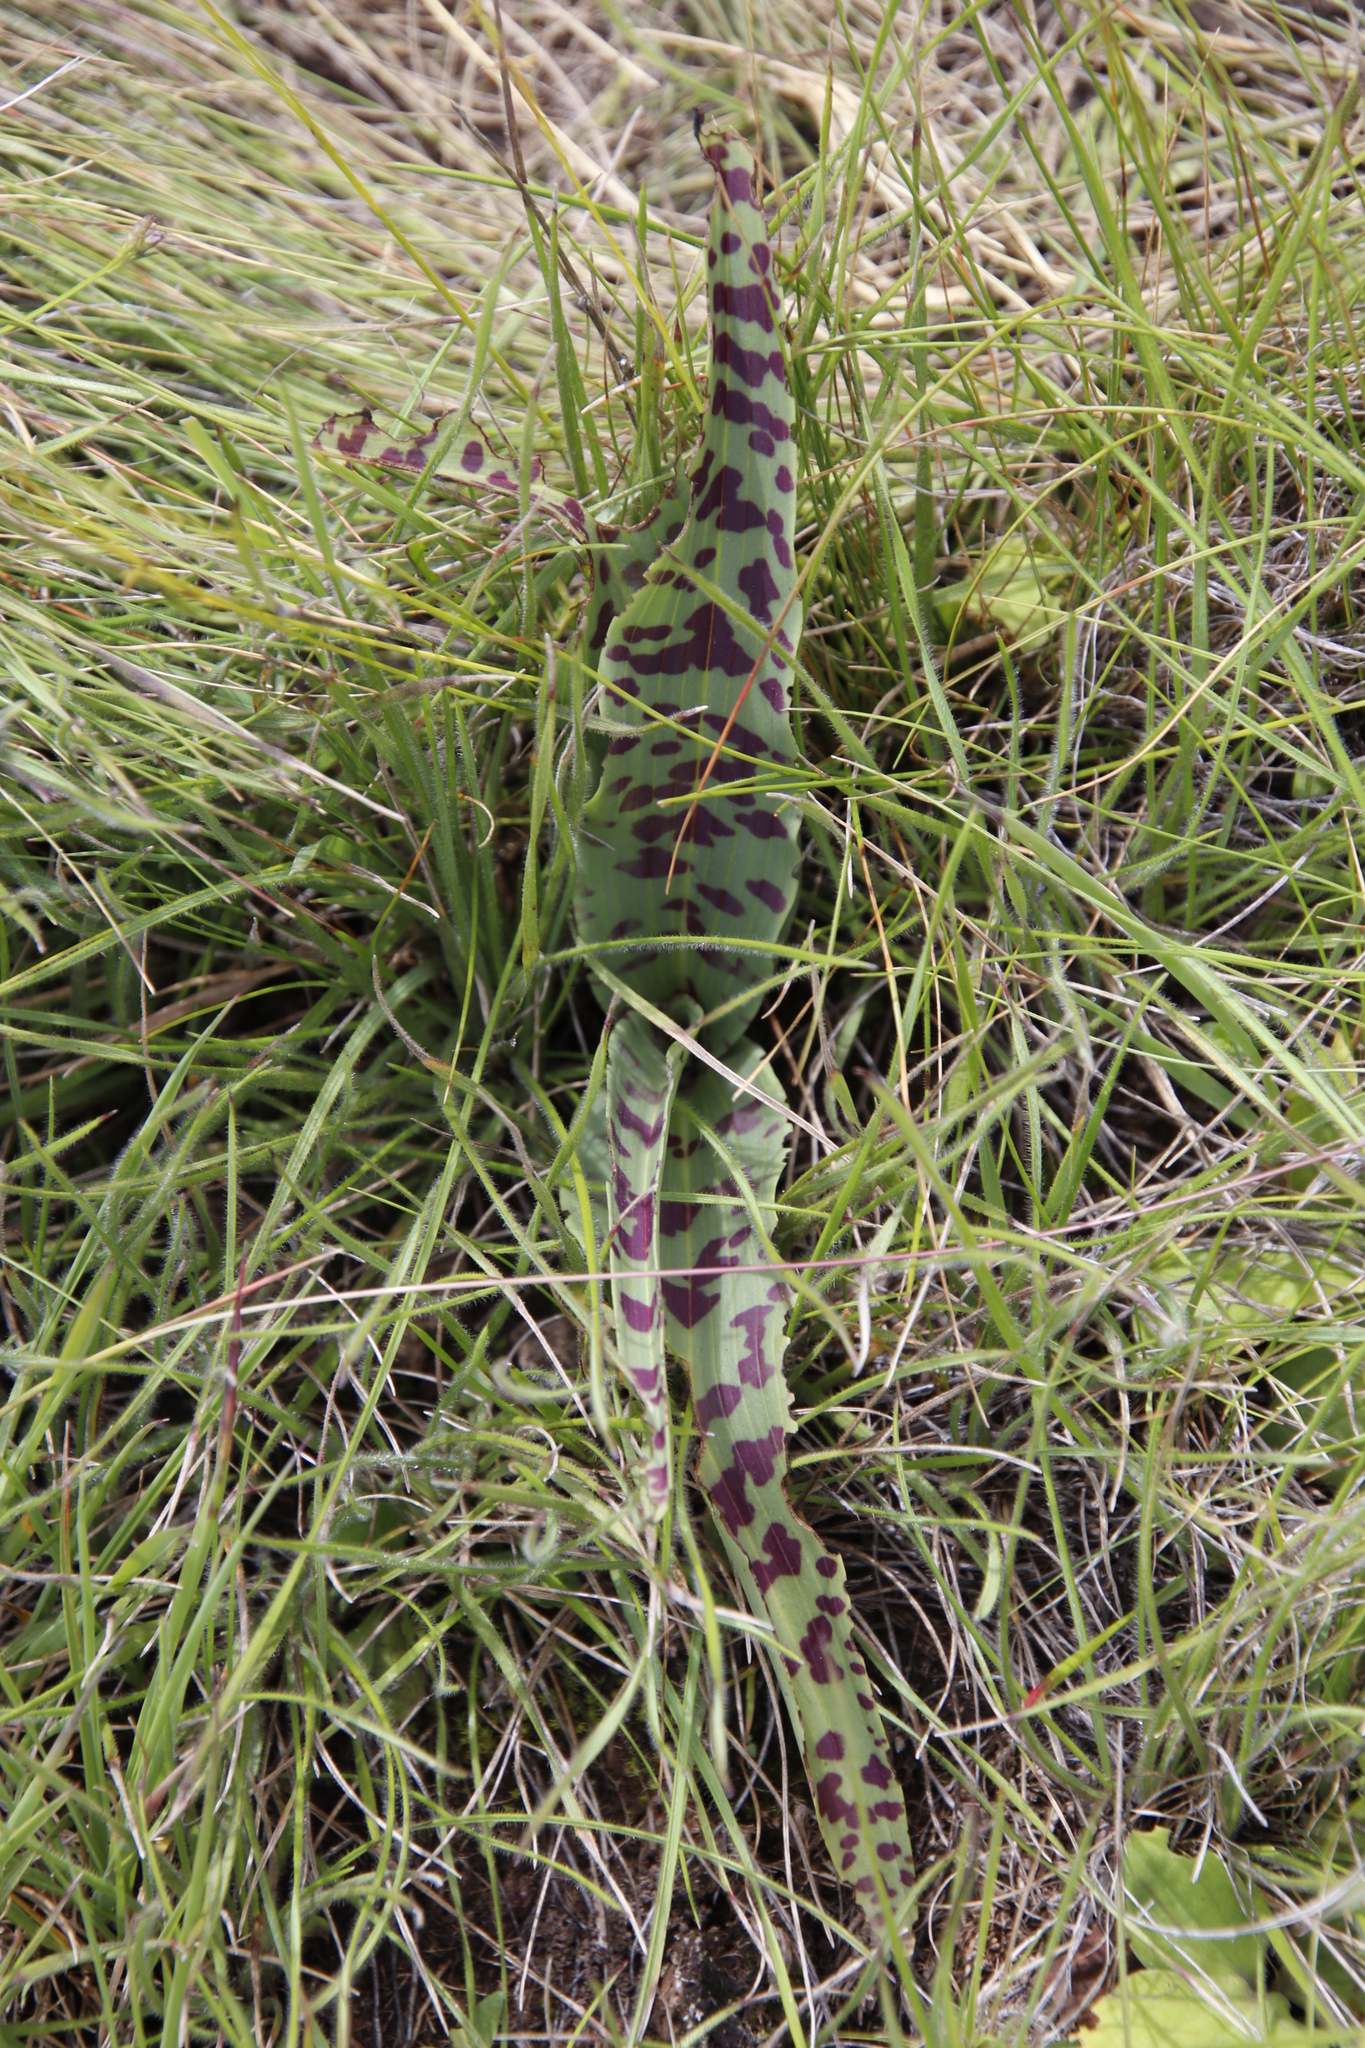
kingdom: Plantae
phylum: Tracheophyta
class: Liliopsida
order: Asparagales
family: Orchidaceae
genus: Disa
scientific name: Disa fragrans
